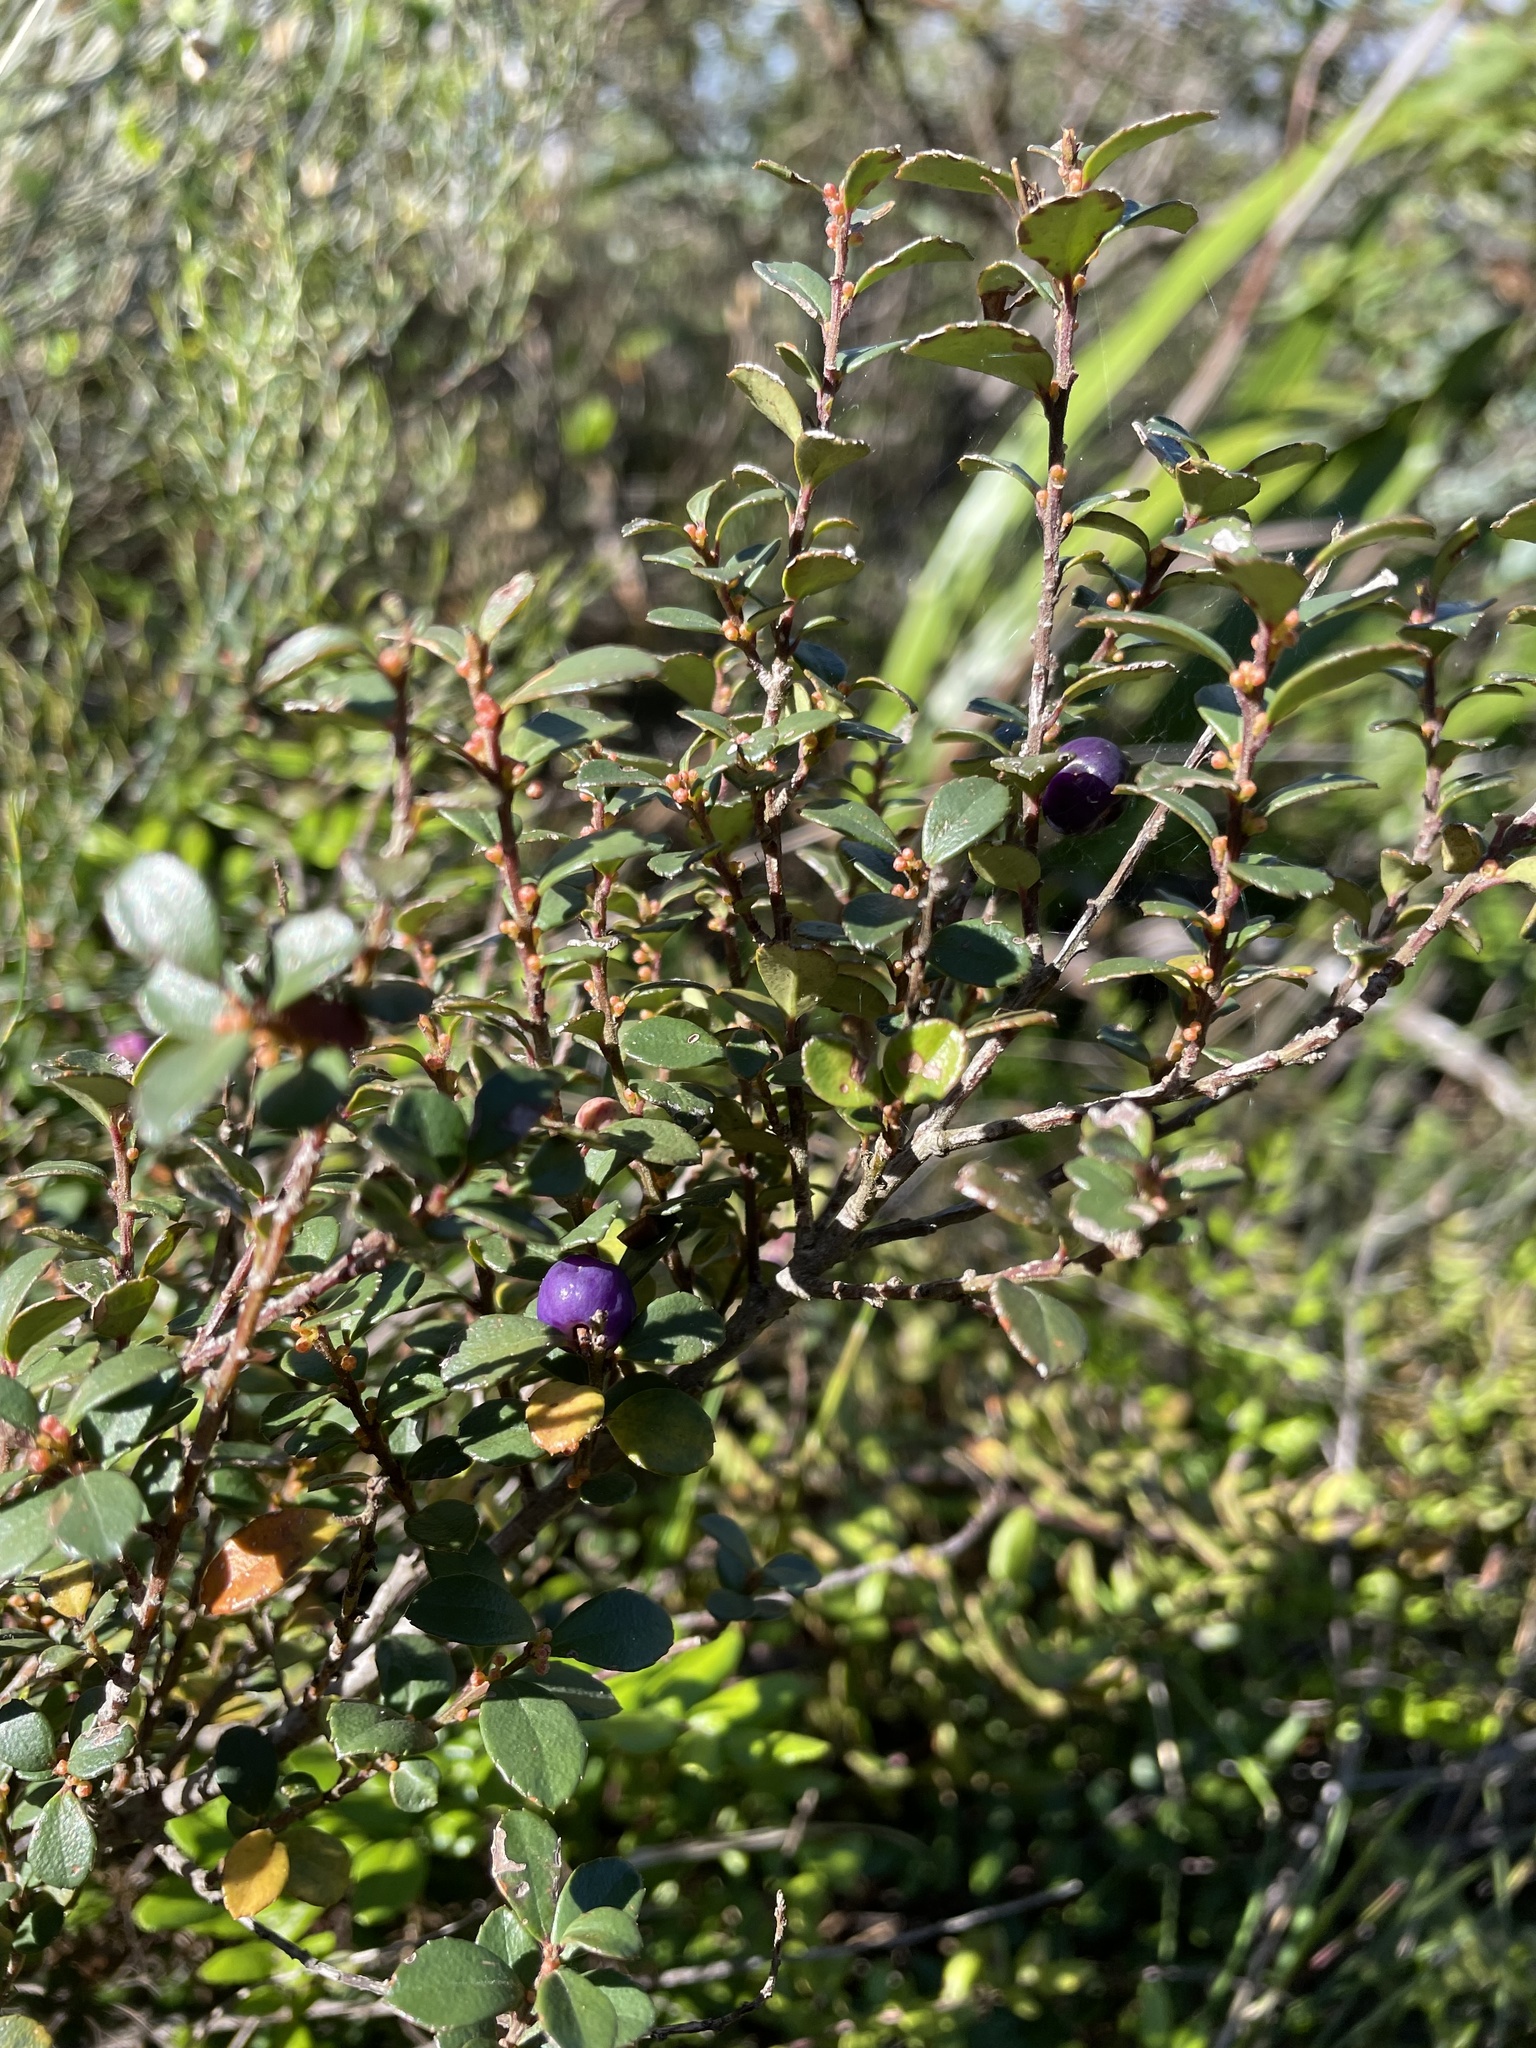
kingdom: Plantae
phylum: Tracheophyta
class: Magnoliopsida
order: Ericales
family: Primulaceae
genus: Myrsine
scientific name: Myrsine africana
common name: African-boxwood
